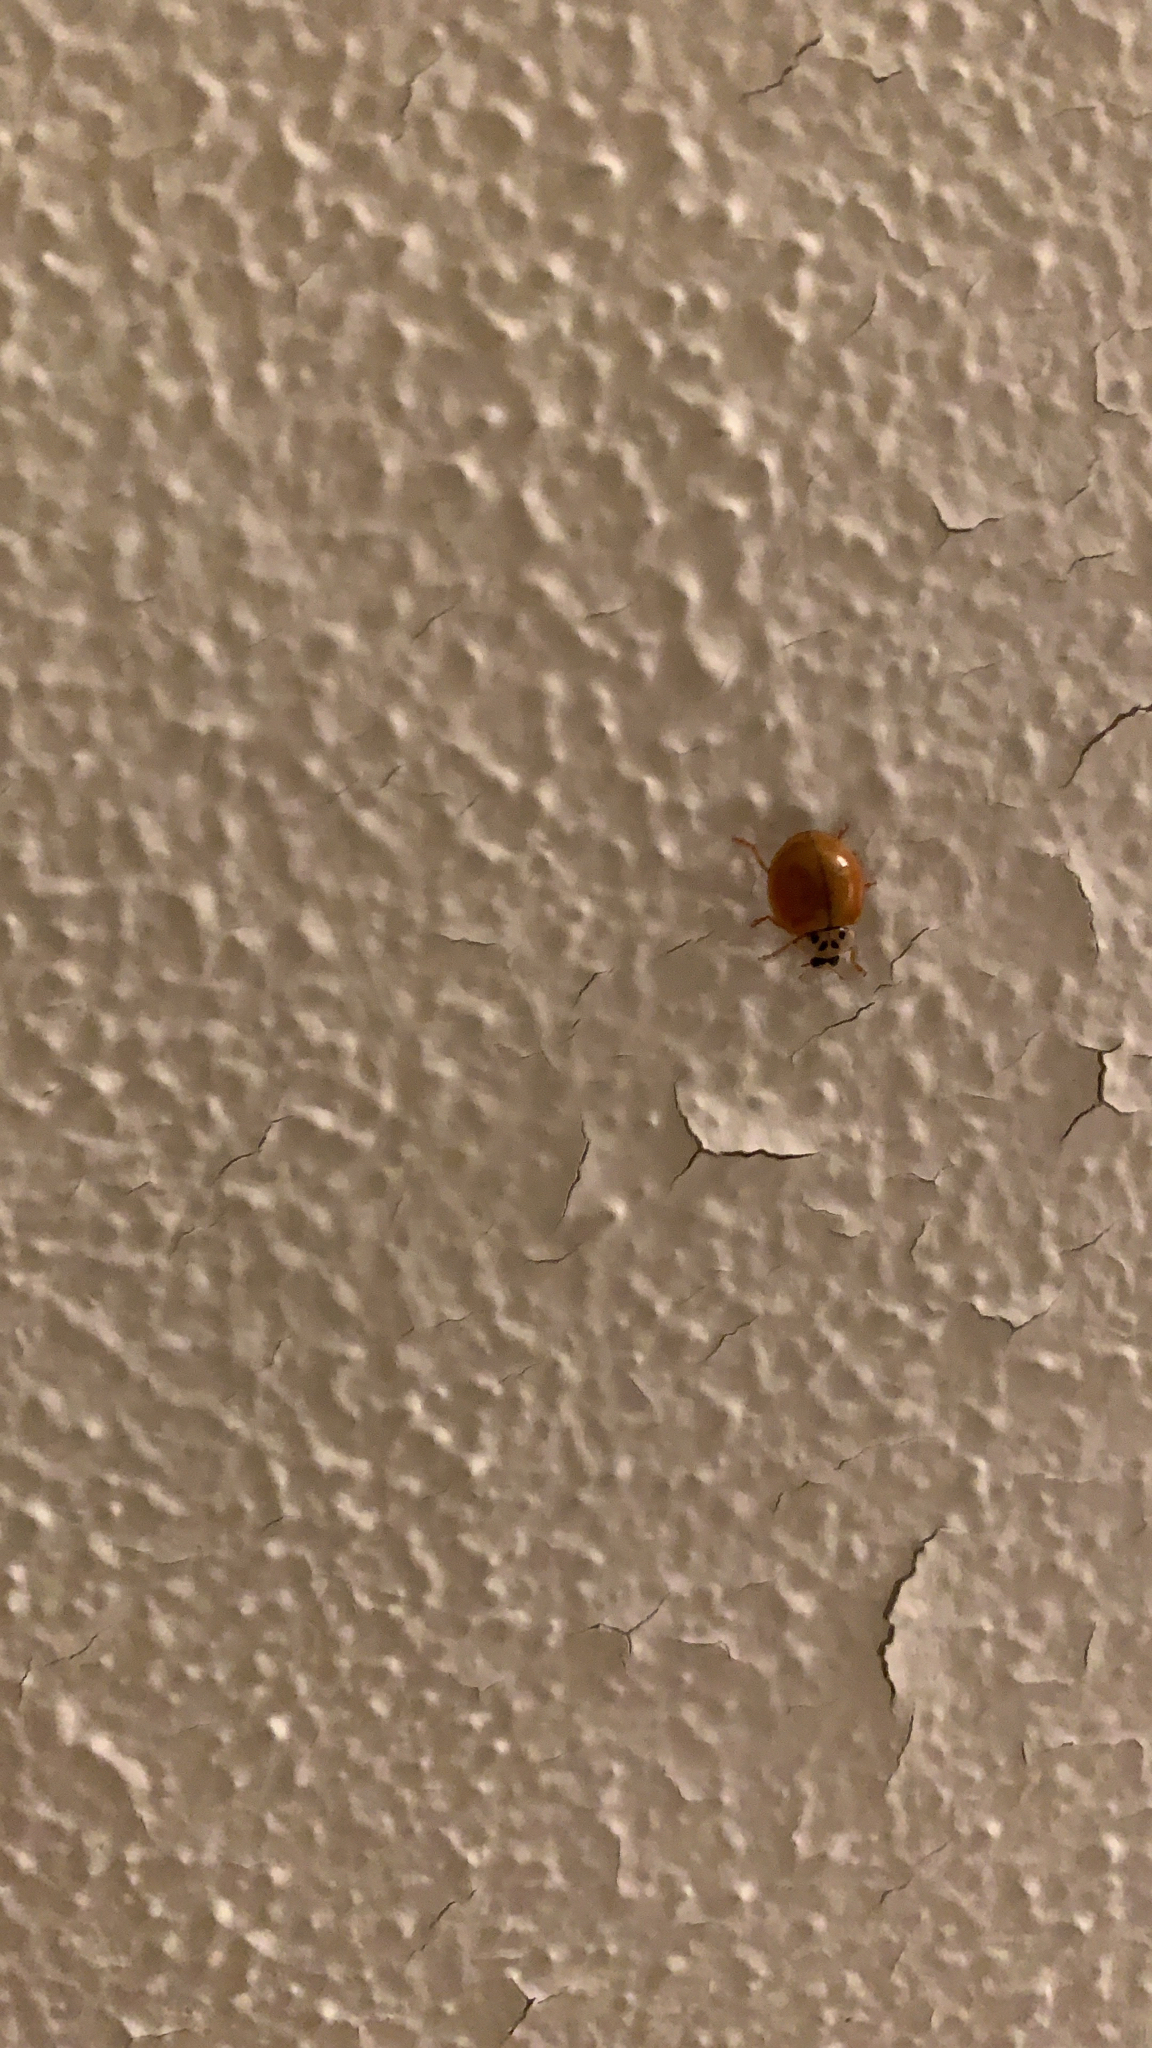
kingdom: Animalia
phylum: Arthropoda
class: Insecta
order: Coleoptera
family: Coccinellidae
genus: Harmonia
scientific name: Harmonia axyridis
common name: Harlequin ladybird
